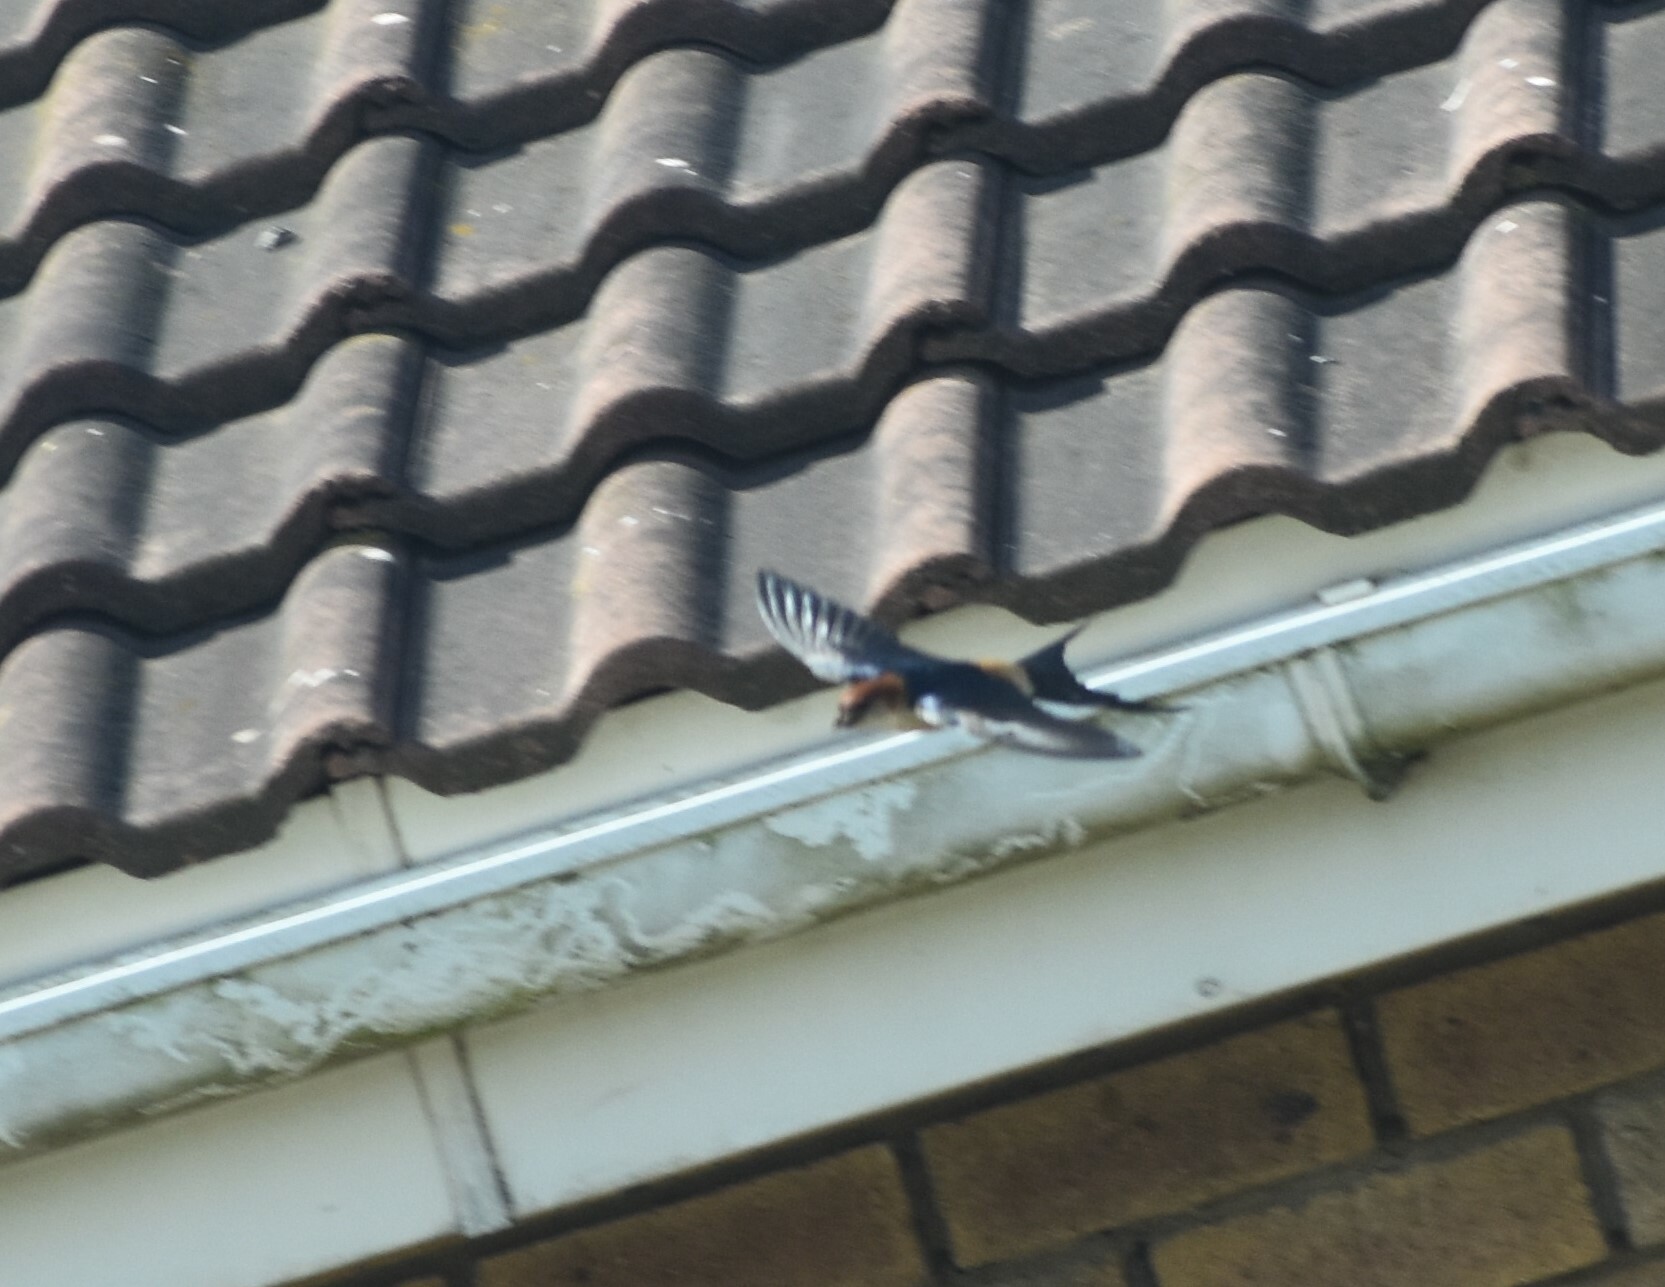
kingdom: Animalia
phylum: Chordata
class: Aves
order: Passeriformes
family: Hirundinidae
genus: Cecropis
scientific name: Cecropis cucullata
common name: Greater striped-swallow
